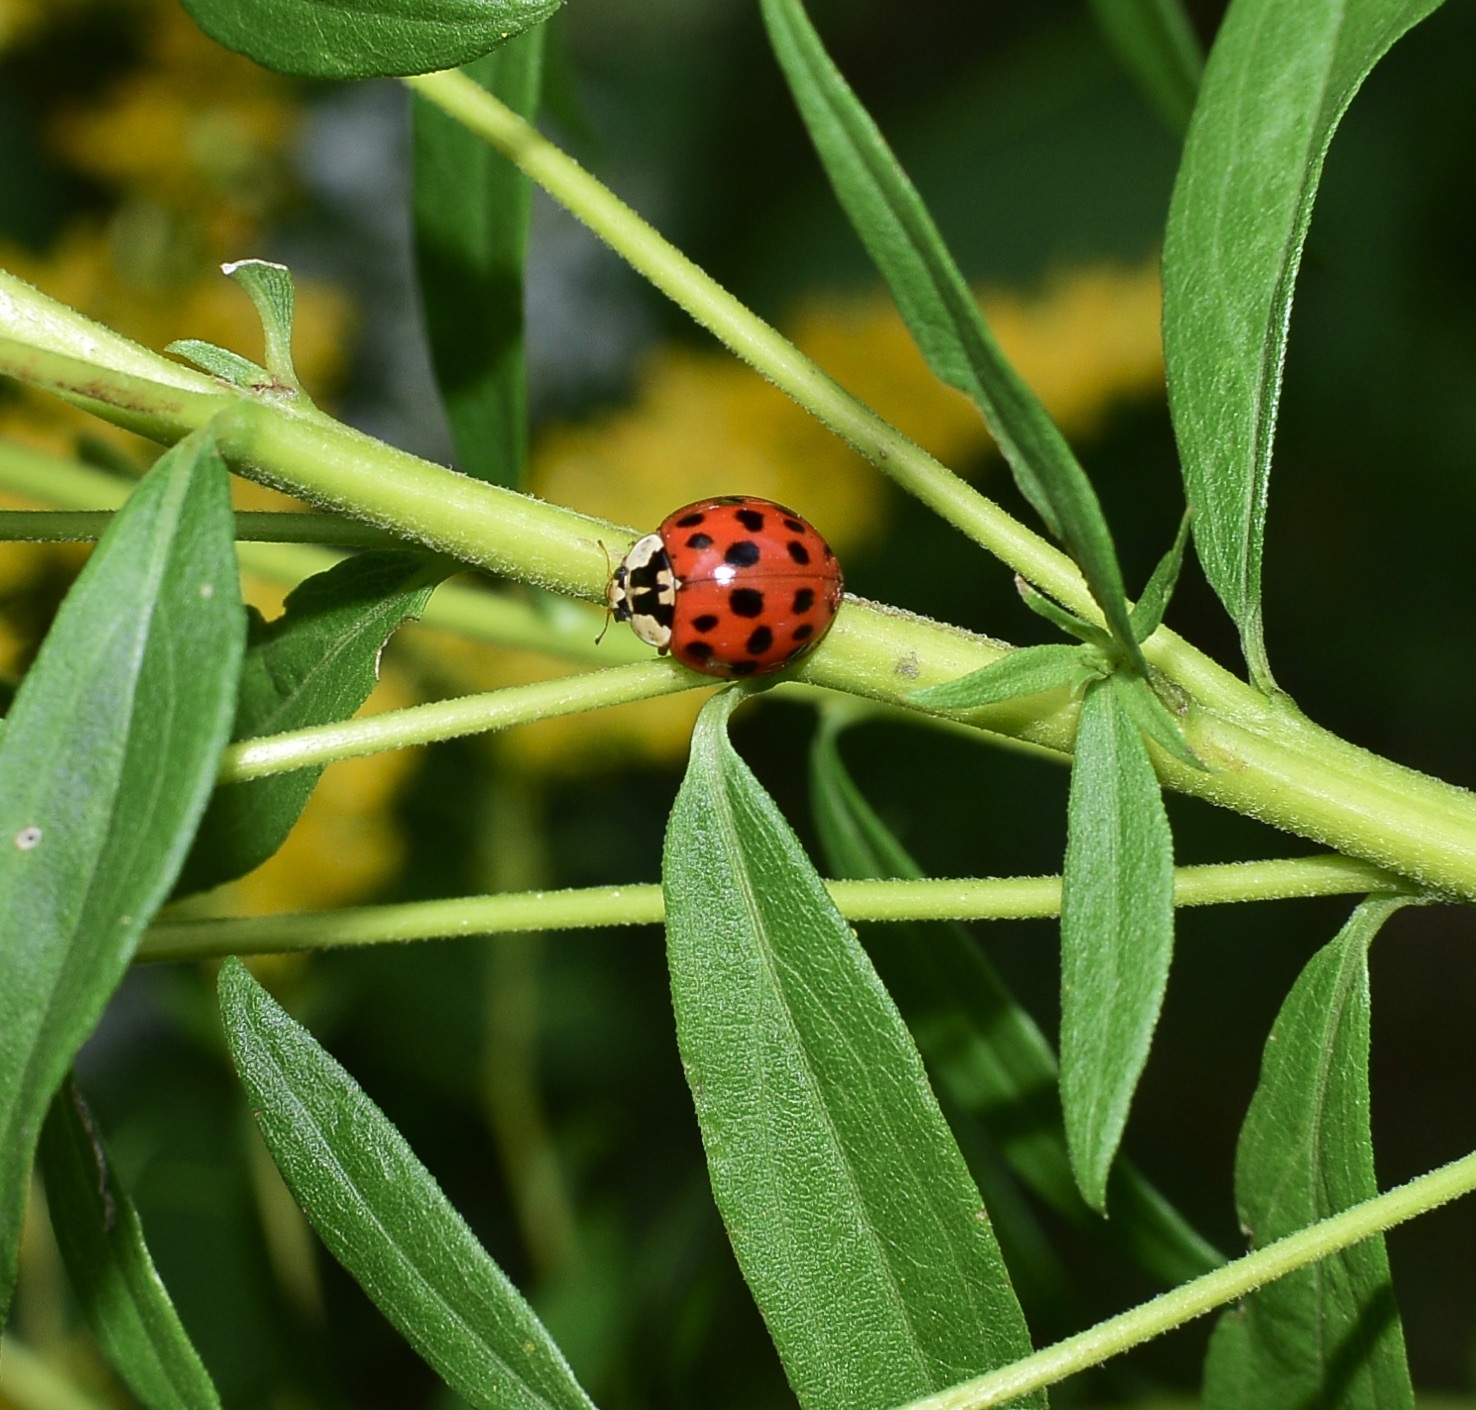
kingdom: Animalia
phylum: Arthropoda
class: Insecta
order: Coleoptera
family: Coccinellidae
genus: Harmonia
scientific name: Harmonia axyridis
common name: Harlequin ladybird
